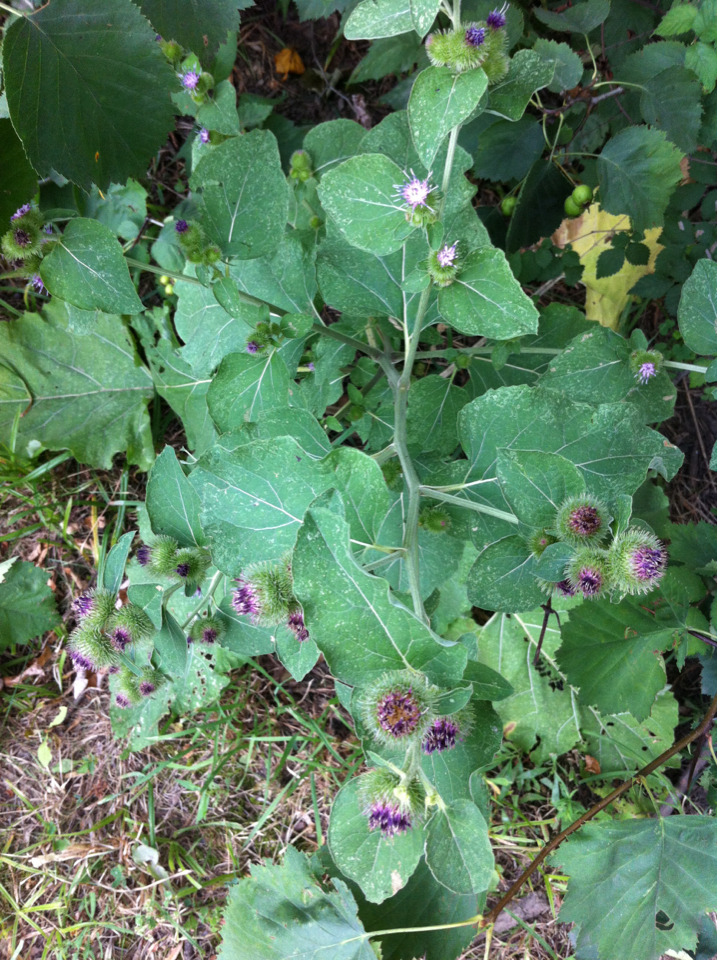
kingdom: Plantae
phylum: Tracheophyta
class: Magnoliopsida
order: Asterales
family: Asteraceae
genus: Arctium
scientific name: Arctium minus
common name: Lesser burdock
